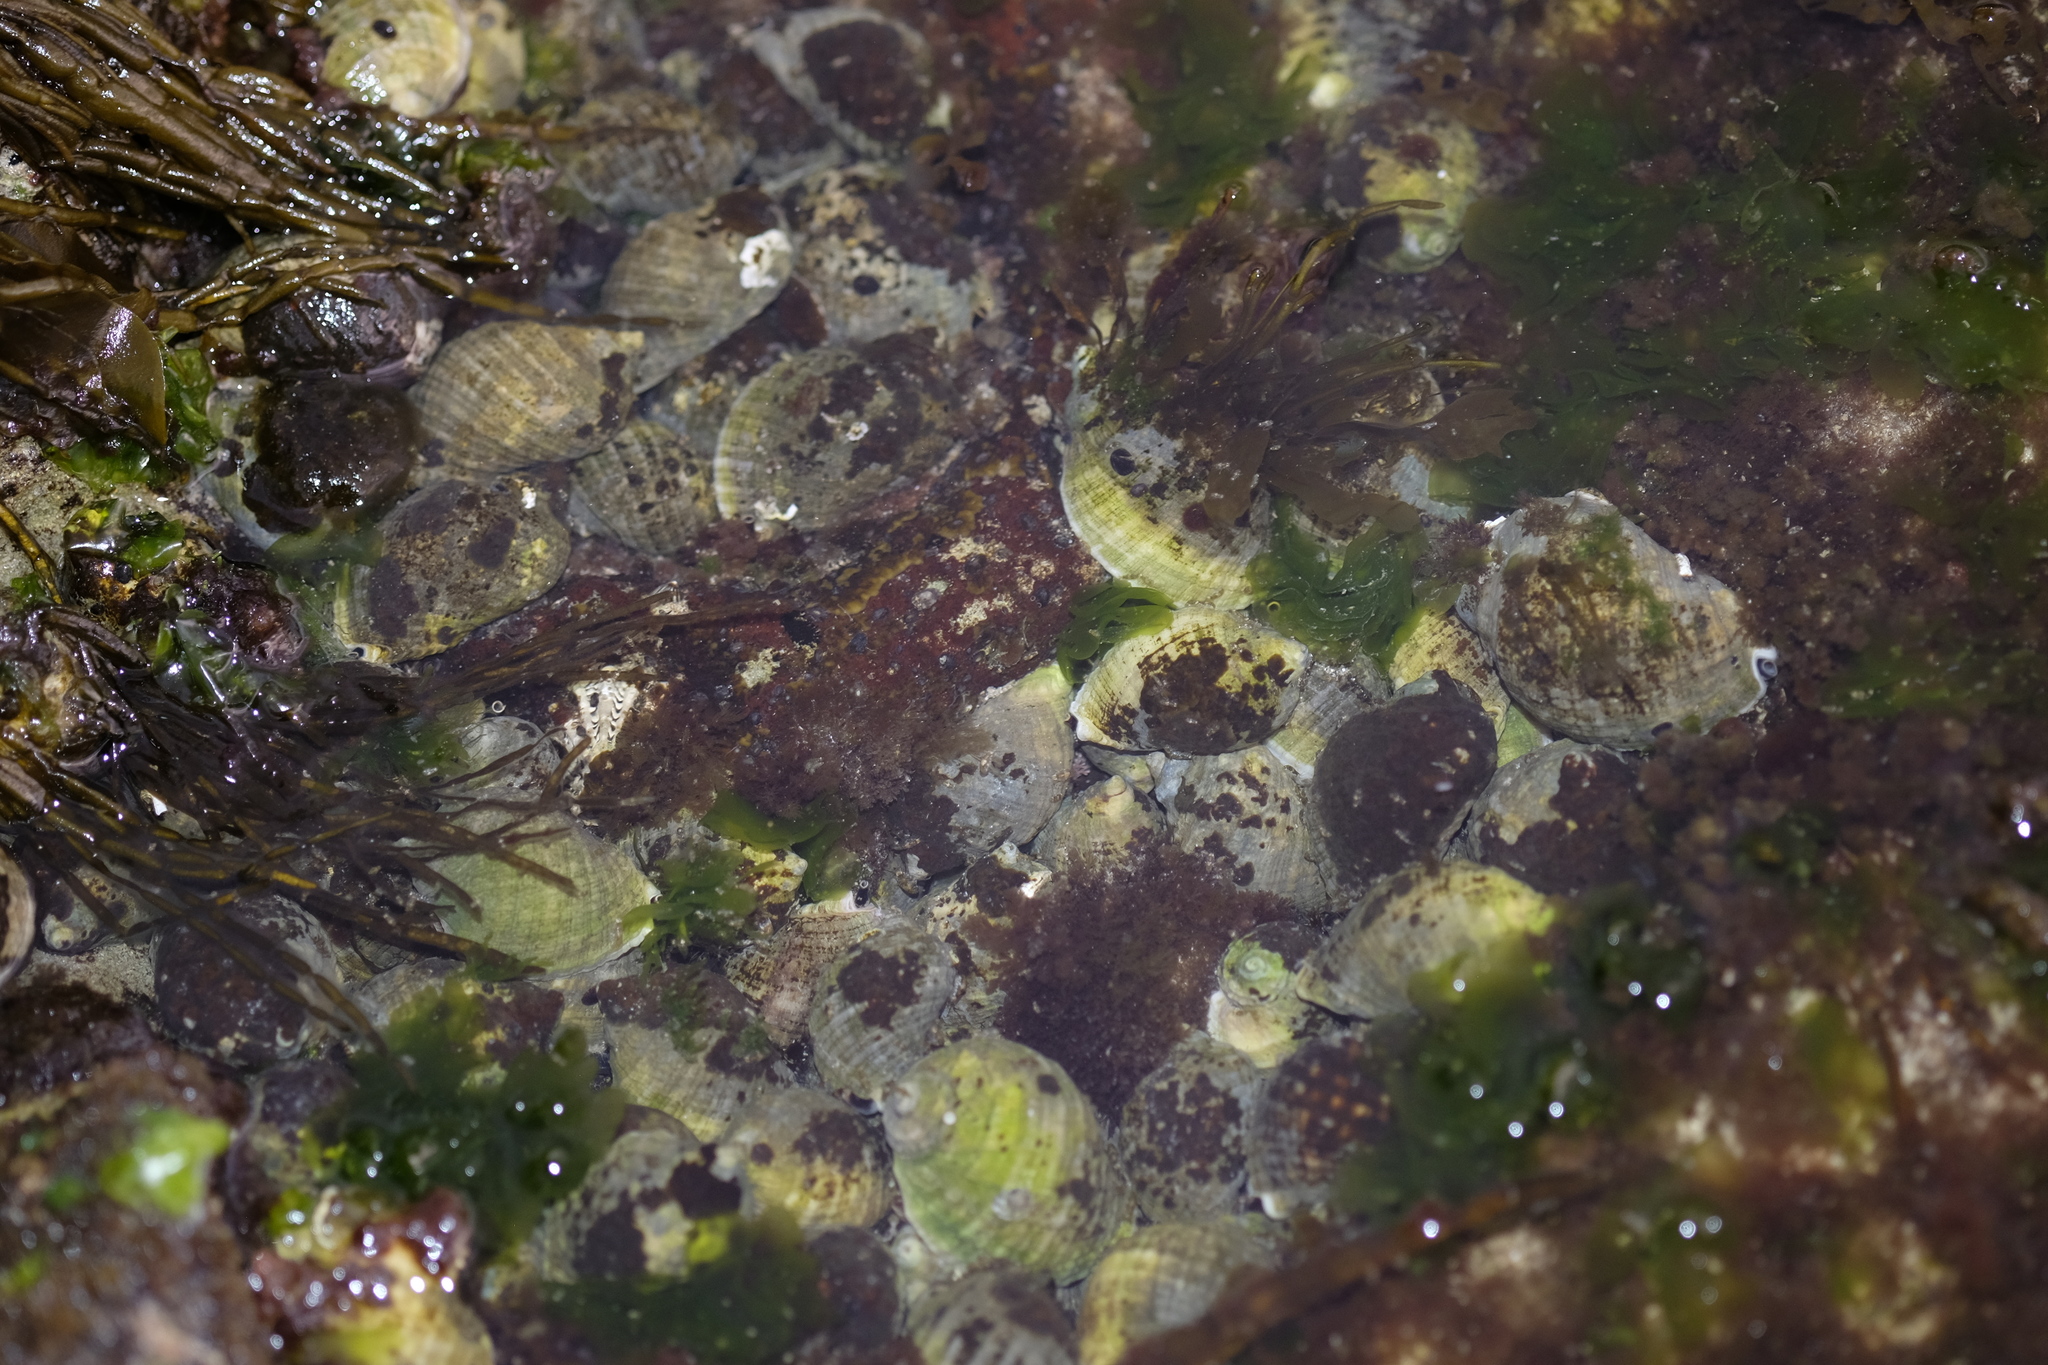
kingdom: Animalia
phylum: Mollusca
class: Gastropoda
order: Neogastropoda
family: Muricidae
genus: Dicathais
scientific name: Dicathais orbita
